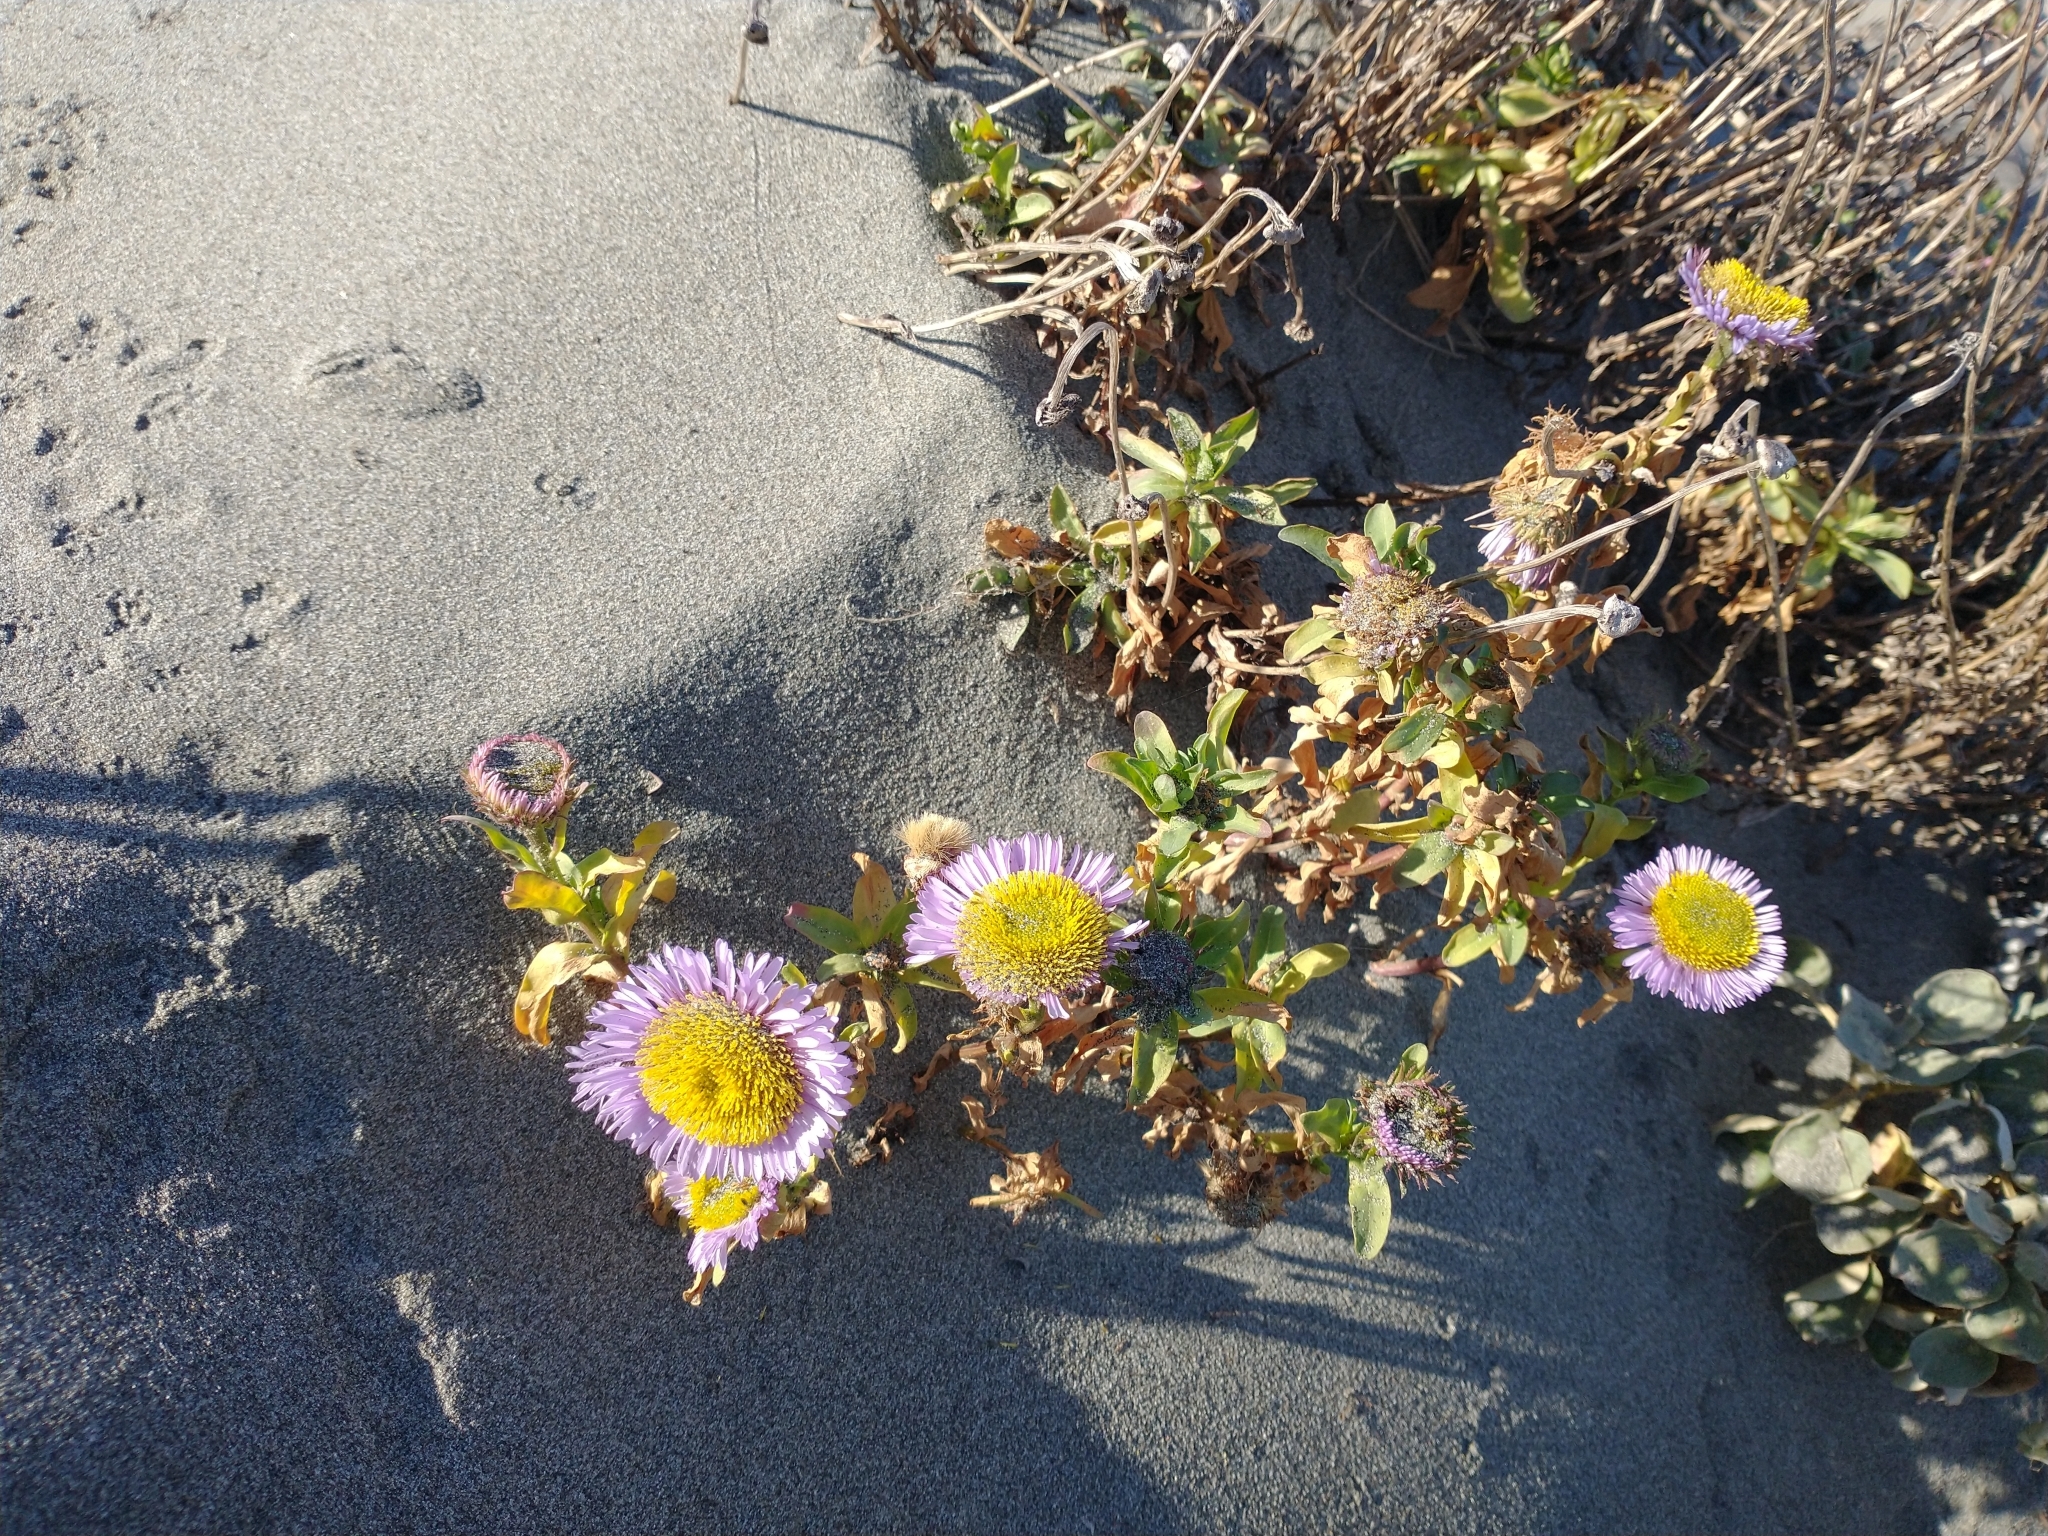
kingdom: Plantae
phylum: Tracheophyta
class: Magnoliopsida
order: Asterales
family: Asteraceae
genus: Erigeron
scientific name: Erigeron glaucus
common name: Seaside daisy
